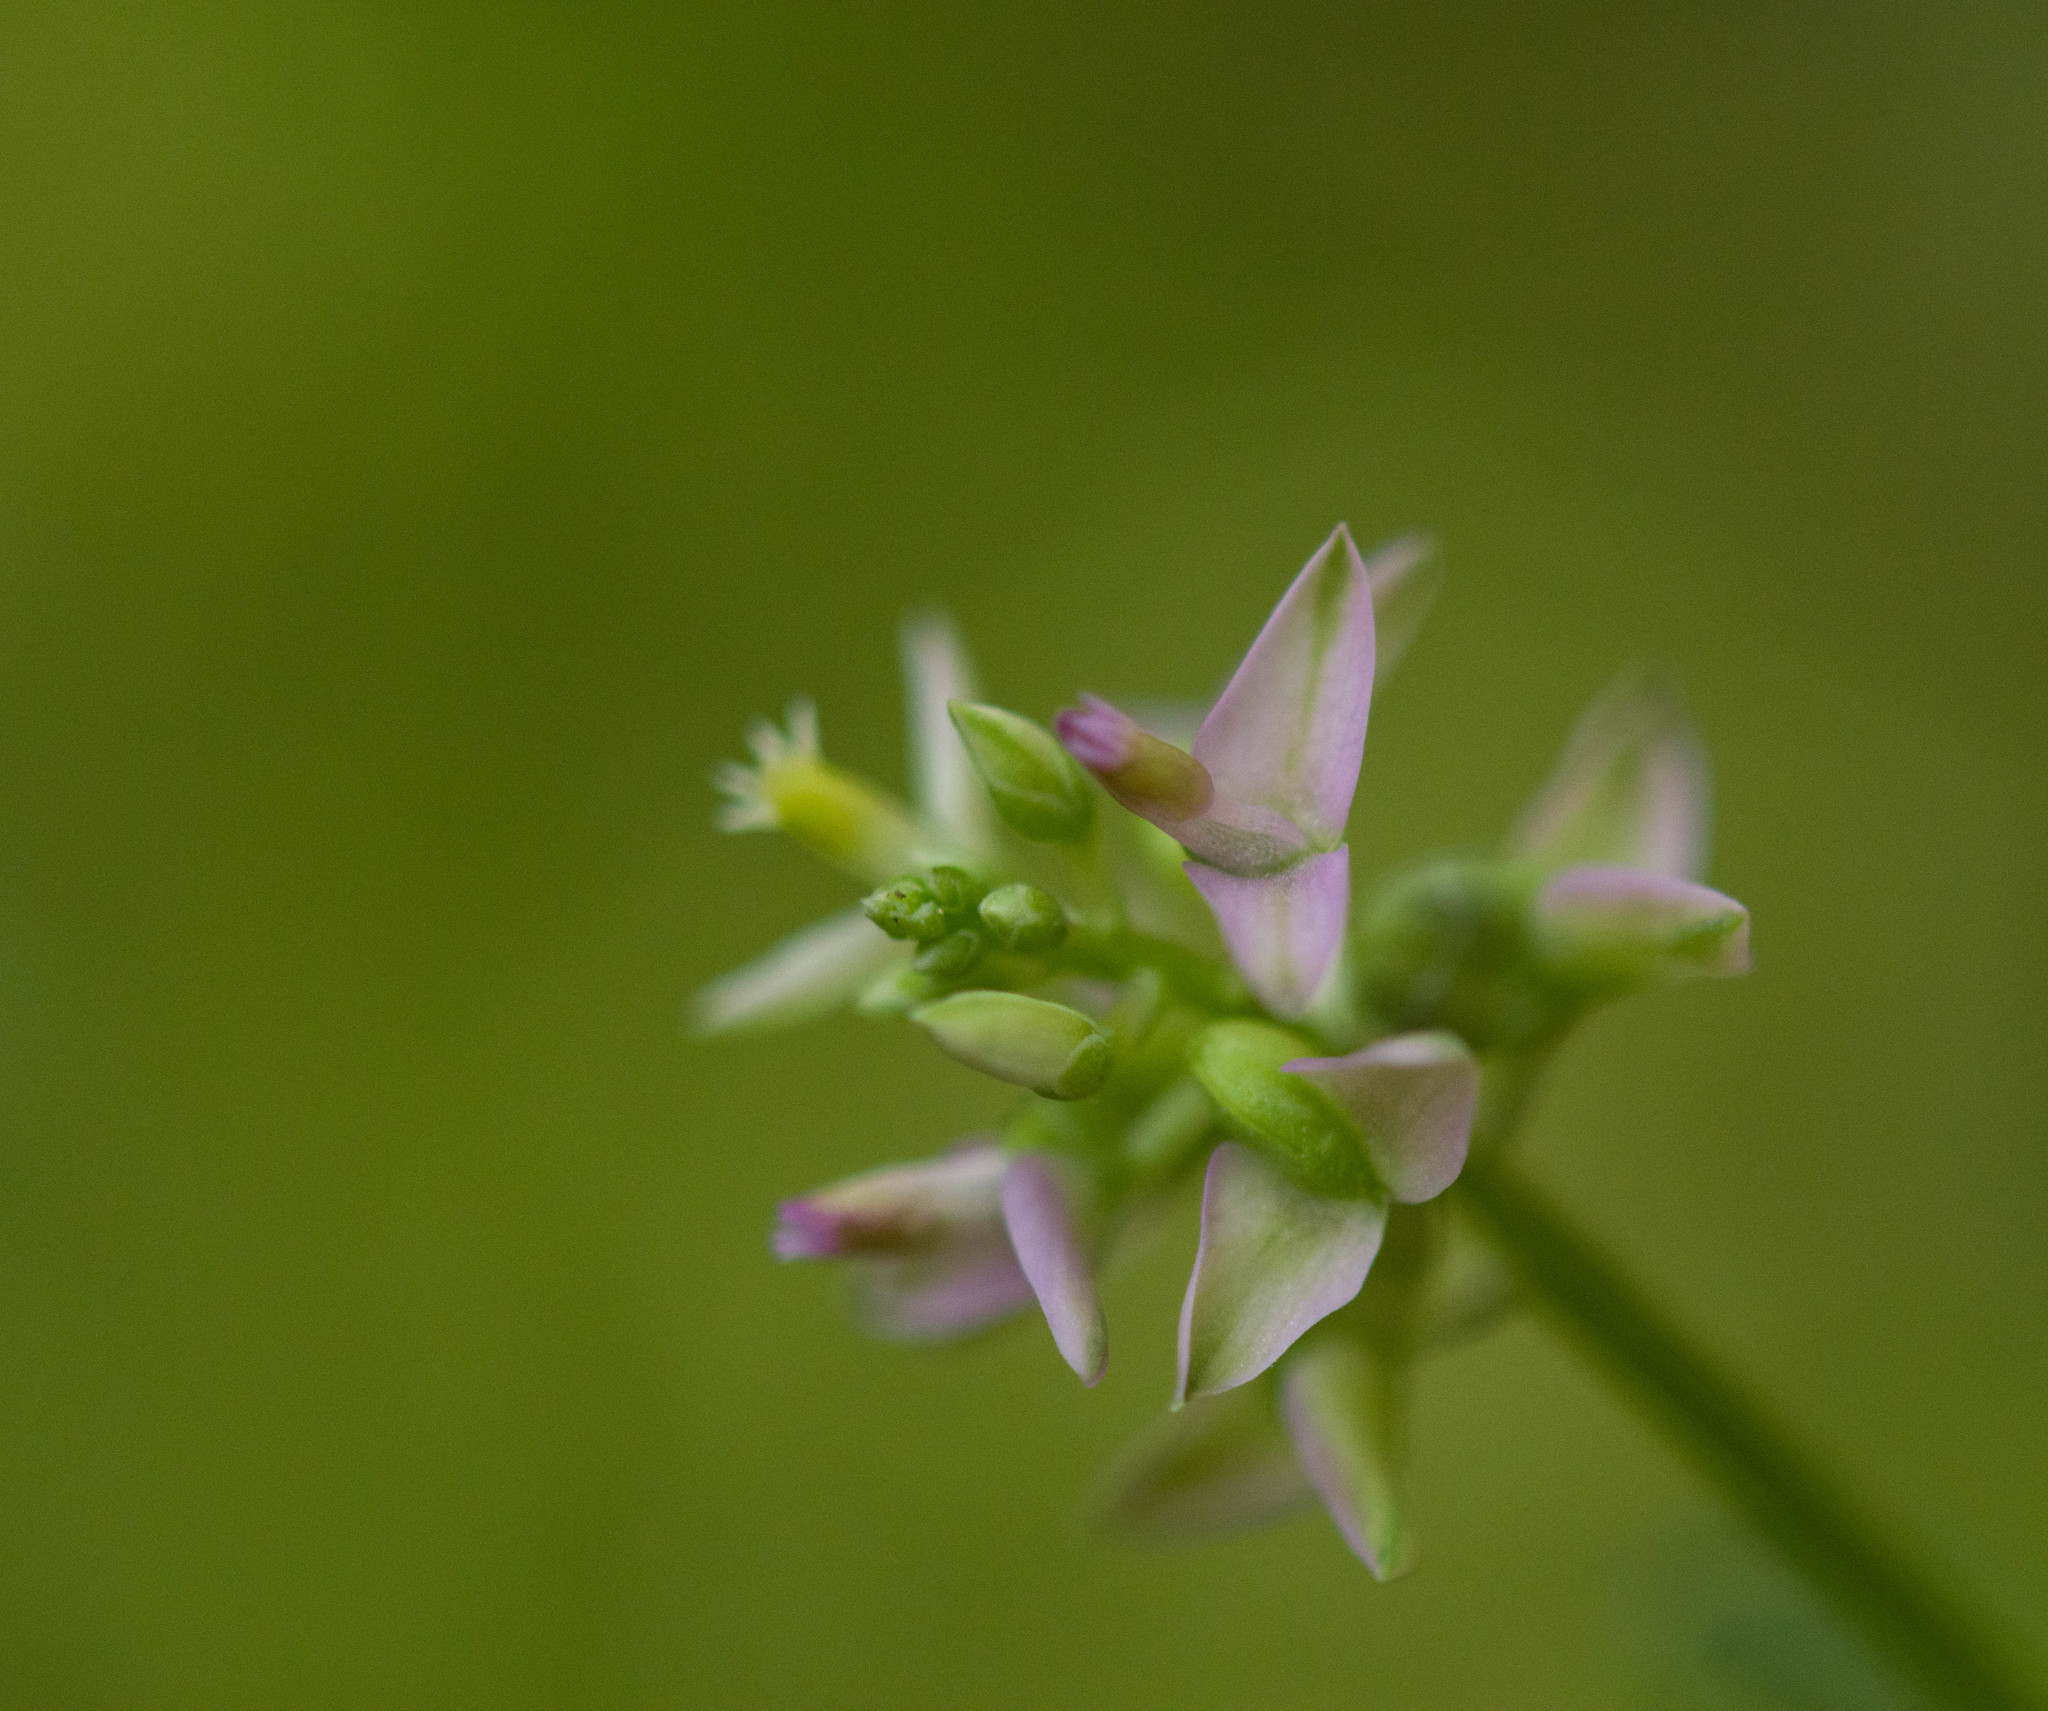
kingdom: Plantae
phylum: Tracheophyta
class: Magnoliopsida
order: Fabales
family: Polygalaceae
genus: Polygala
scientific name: Polygala brevifolia
